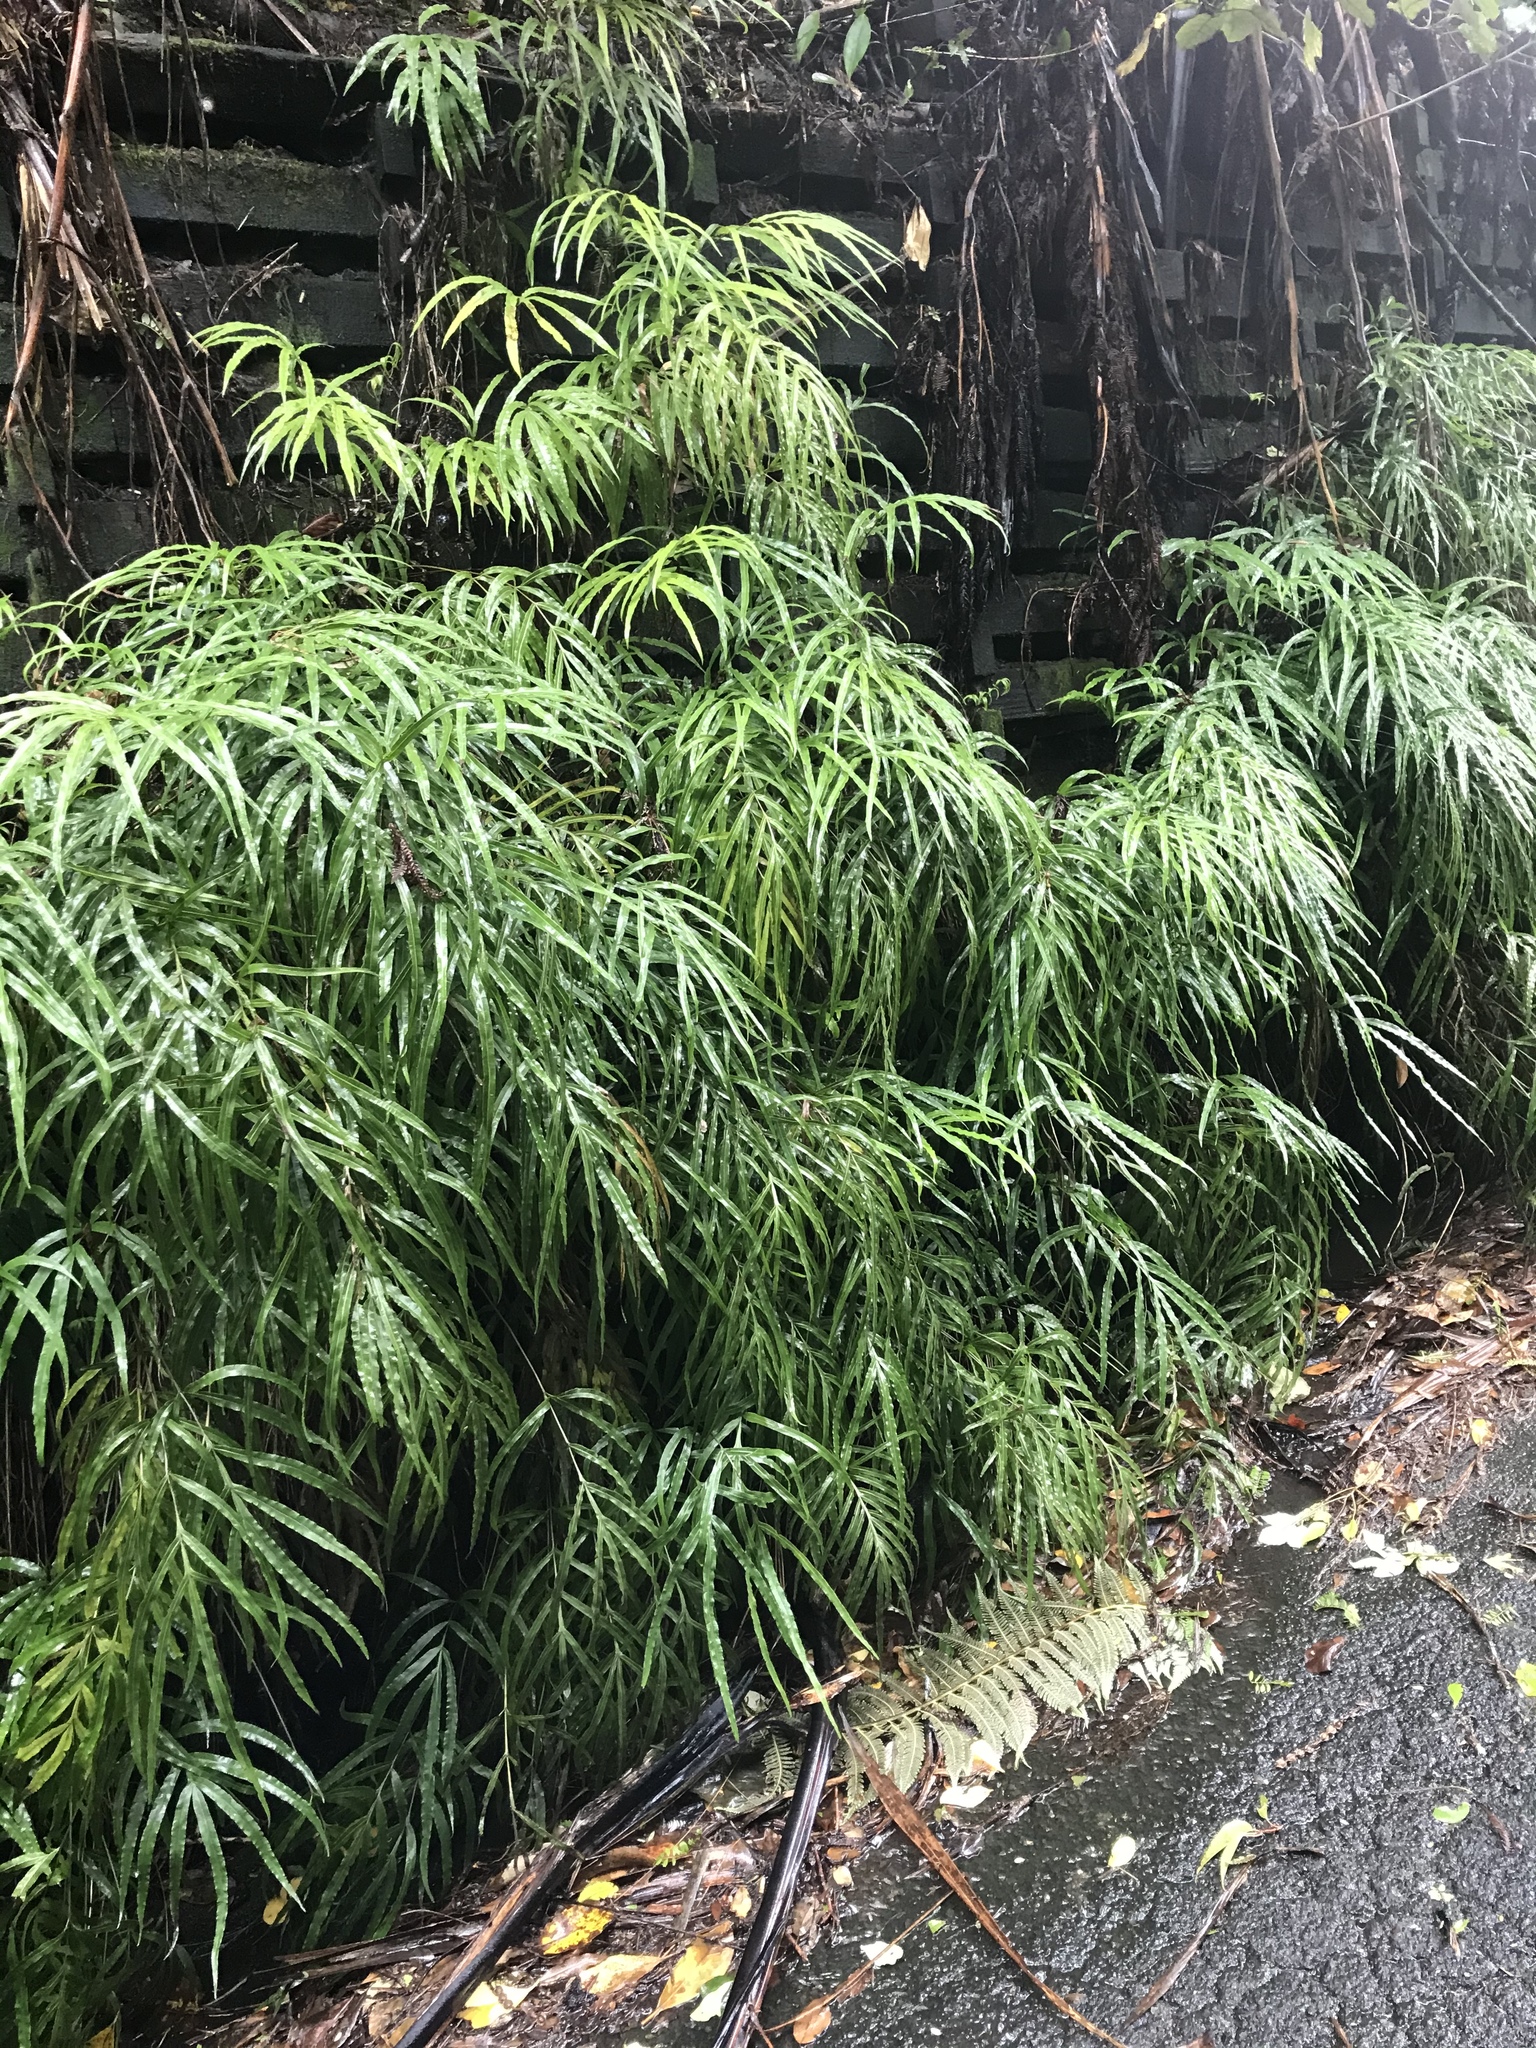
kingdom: Plantae
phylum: Tracheophyta
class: Polypodiopsida
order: Polypodiales
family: Pteridaceae
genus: Pteris
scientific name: Pteris cretica
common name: Ribbon fern
